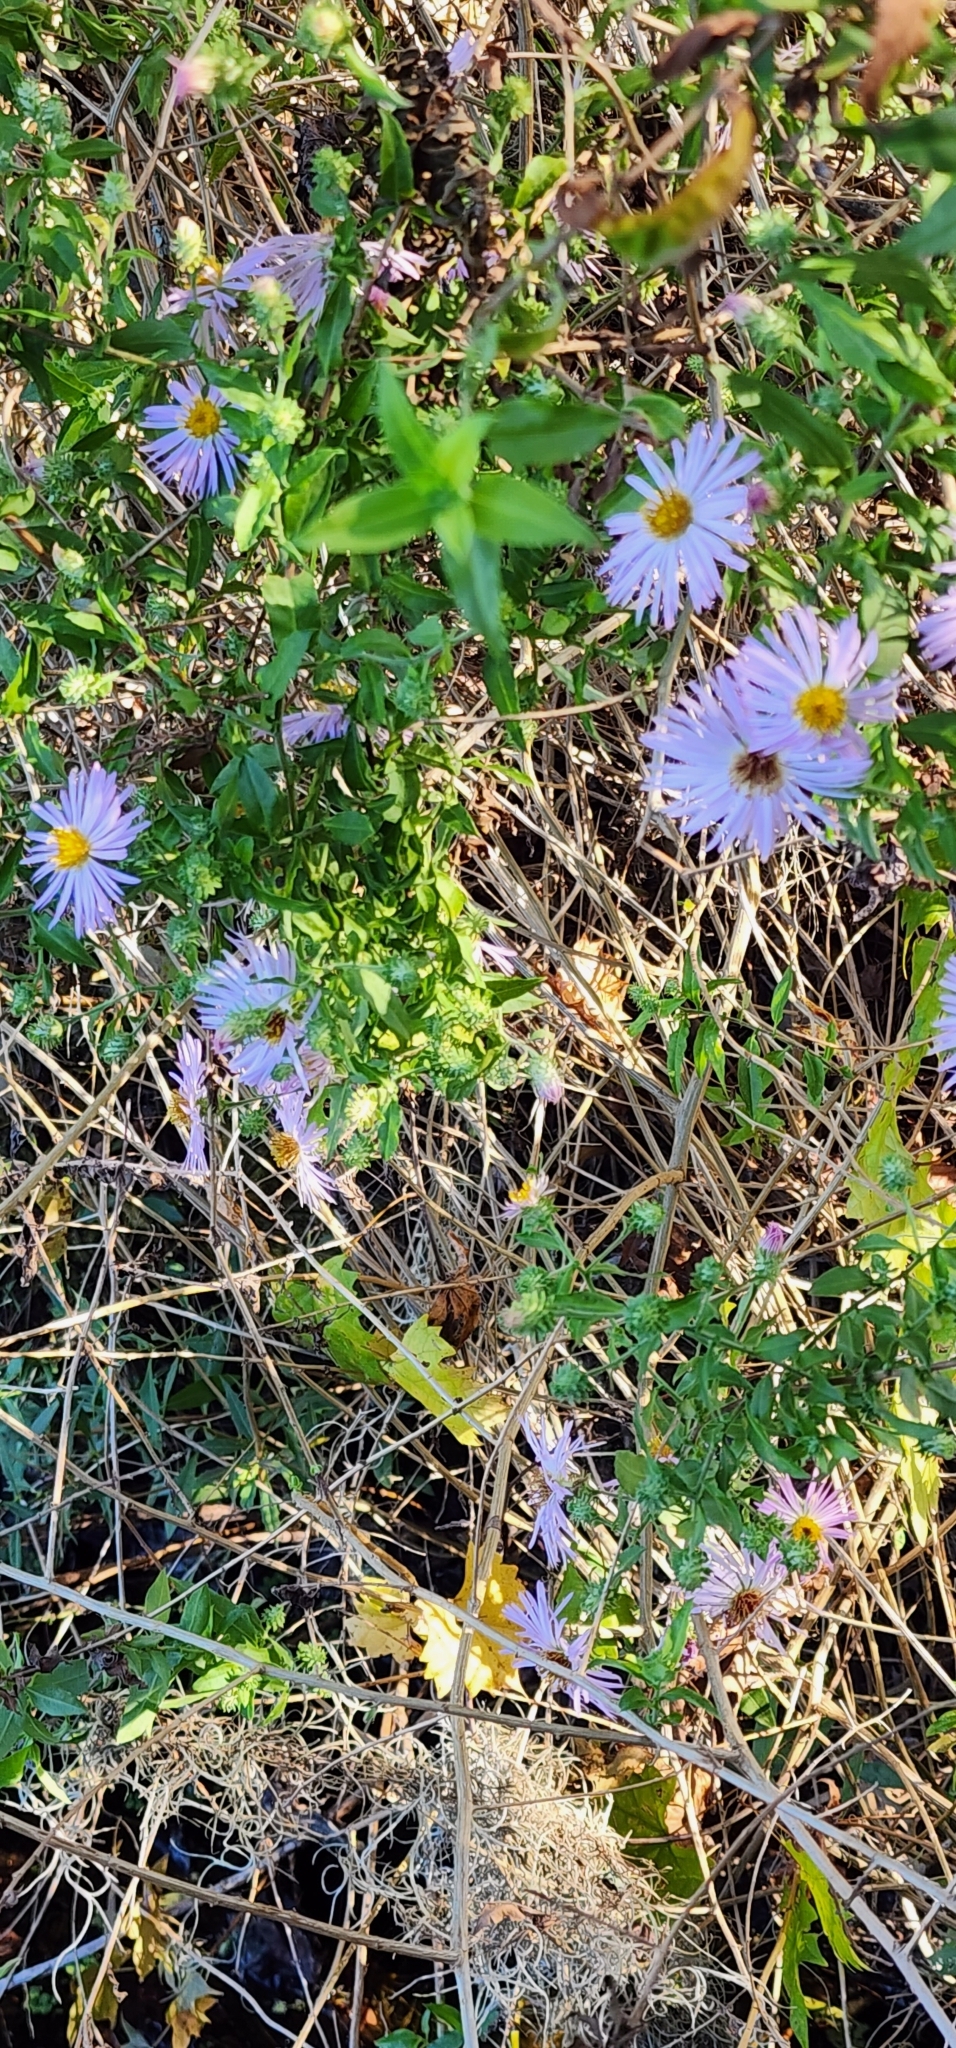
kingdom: Plantae
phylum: Tracheophyta
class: Magnoliopsida
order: Asterales
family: Asteraceae
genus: Ampelaster
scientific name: Ampelaster carolinianus
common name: Climbing aster
